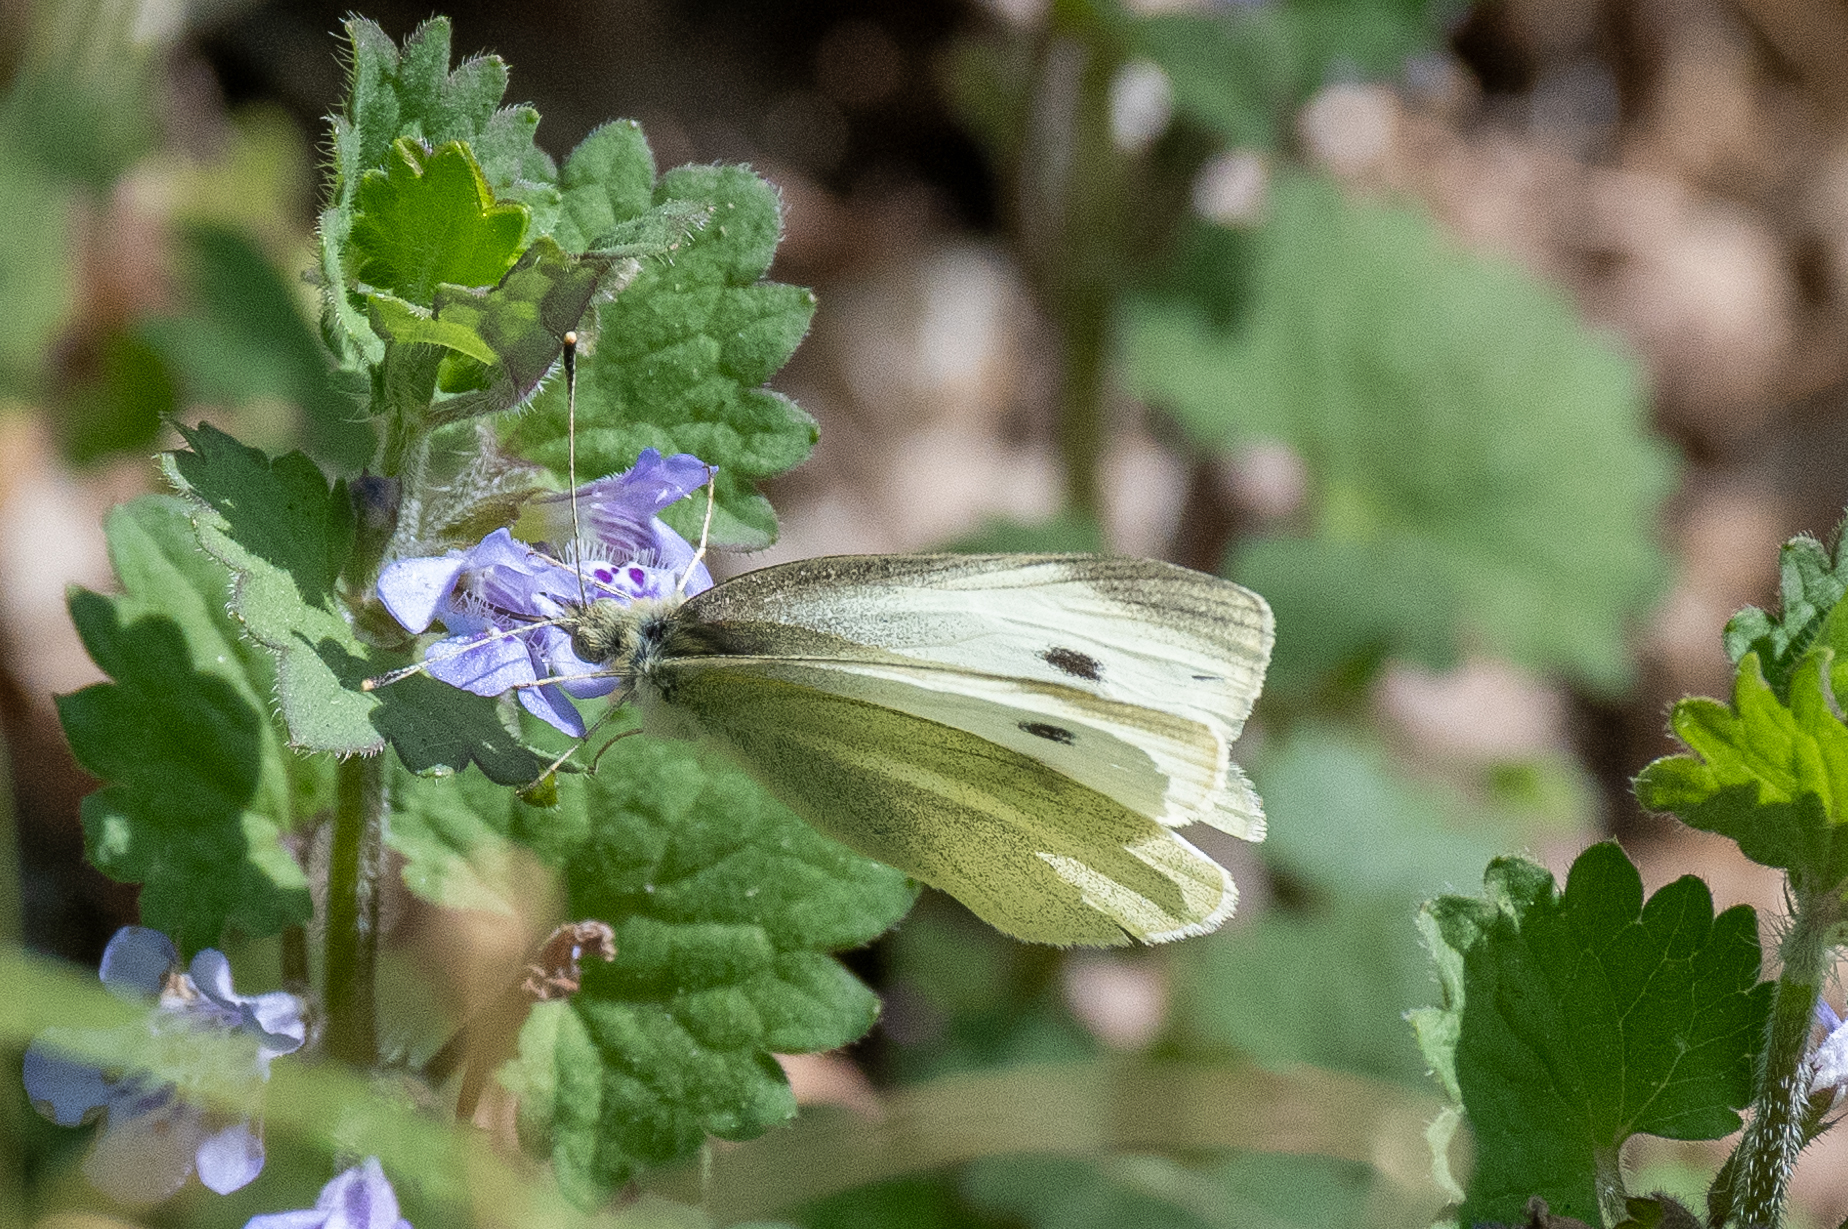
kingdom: Animalia
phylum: Arthropoda
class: Insecta
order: Lepidoptera
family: Pieridae
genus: Pieris
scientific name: Pieris rapae
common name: Small white
